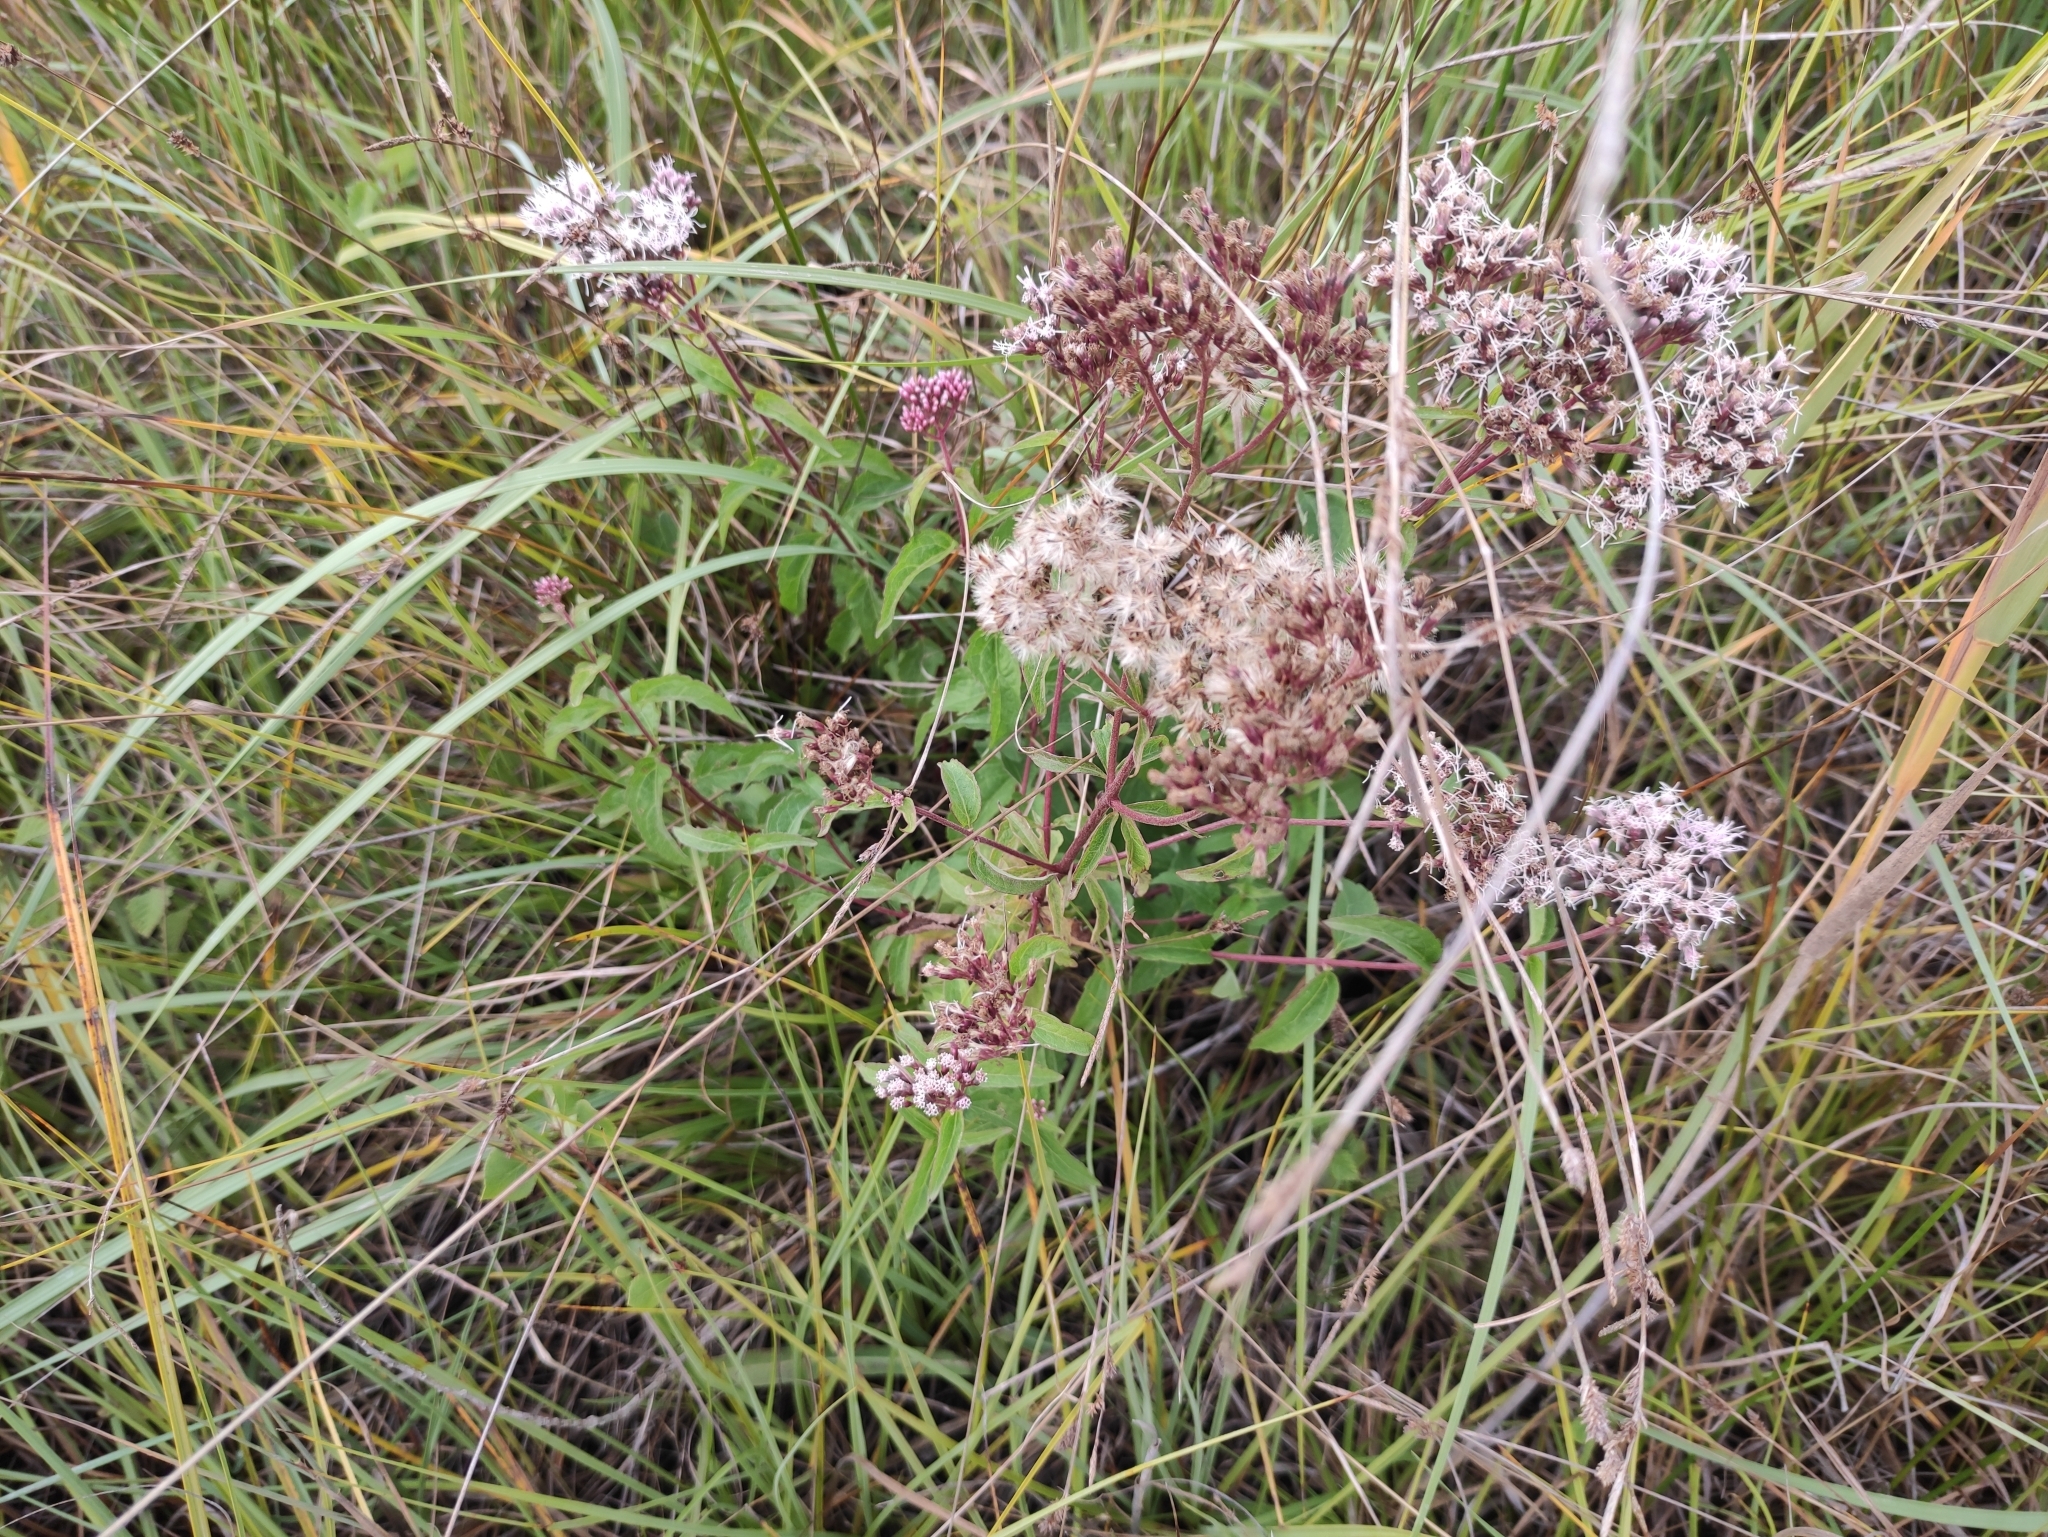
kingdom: Plantae
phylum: Tracheophyta
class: Magnoliopsida
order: Asterales
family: Asteraceae
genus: Eupatorium
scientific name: Eupatorium cannabinum
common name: Hemp-agrimony
